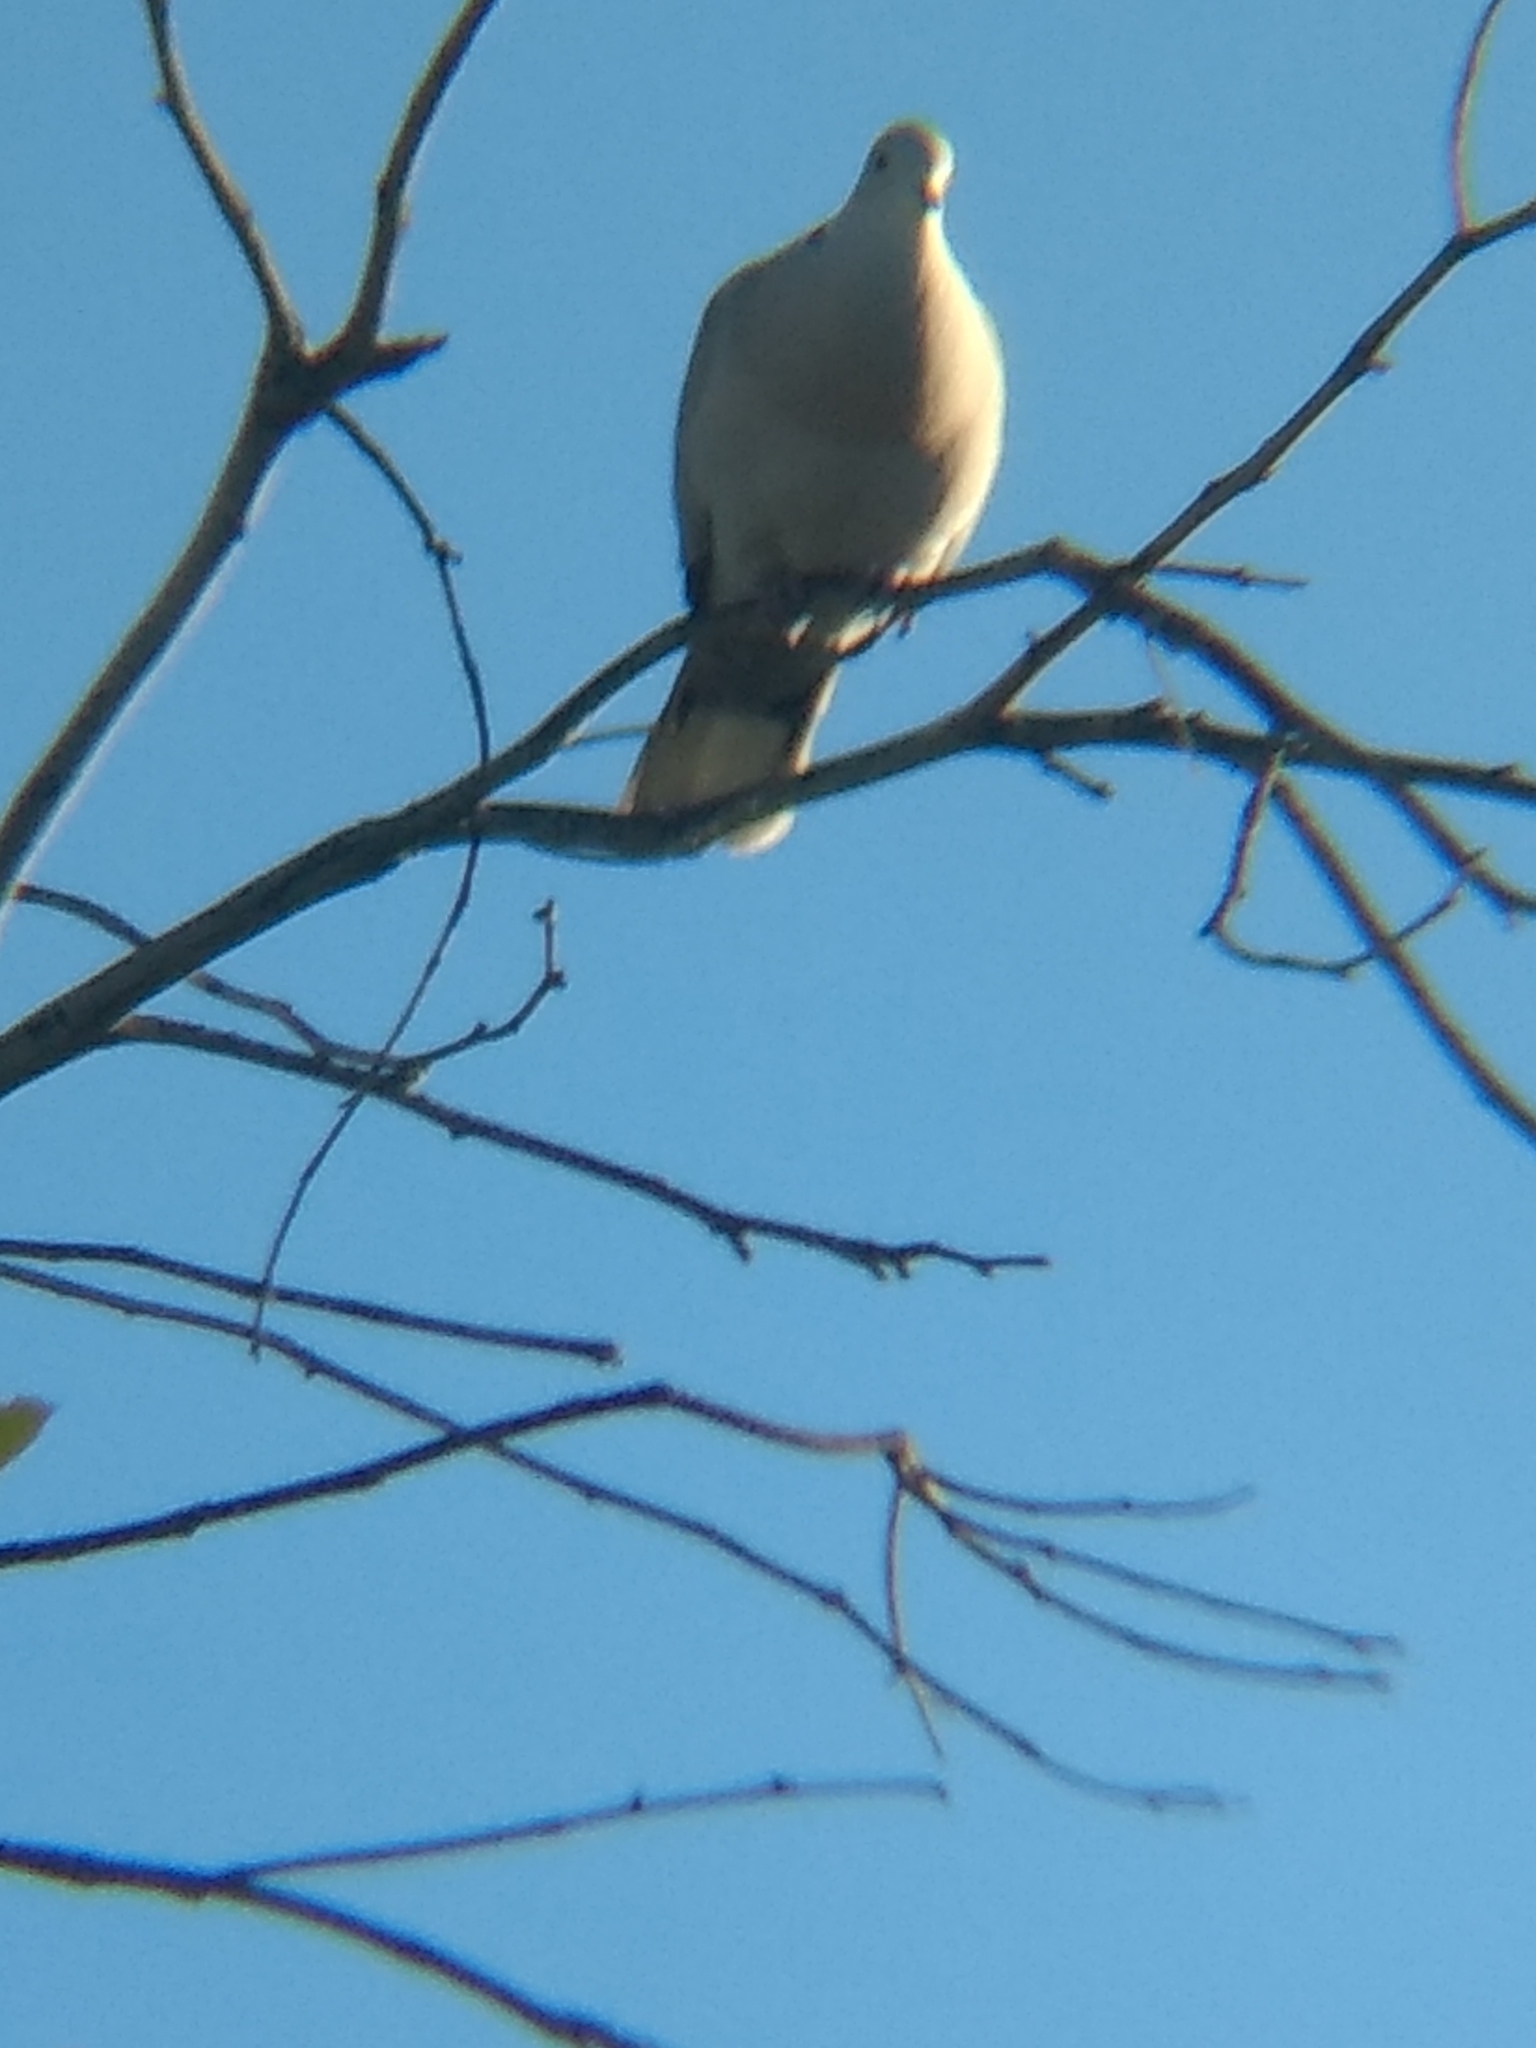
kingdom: Animalia
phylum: Chordata
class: Aves
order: Columbiformes
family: Columbidae
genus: Streptopelia
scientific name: Streptopelia decaocto
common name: Eurasian collared dove
